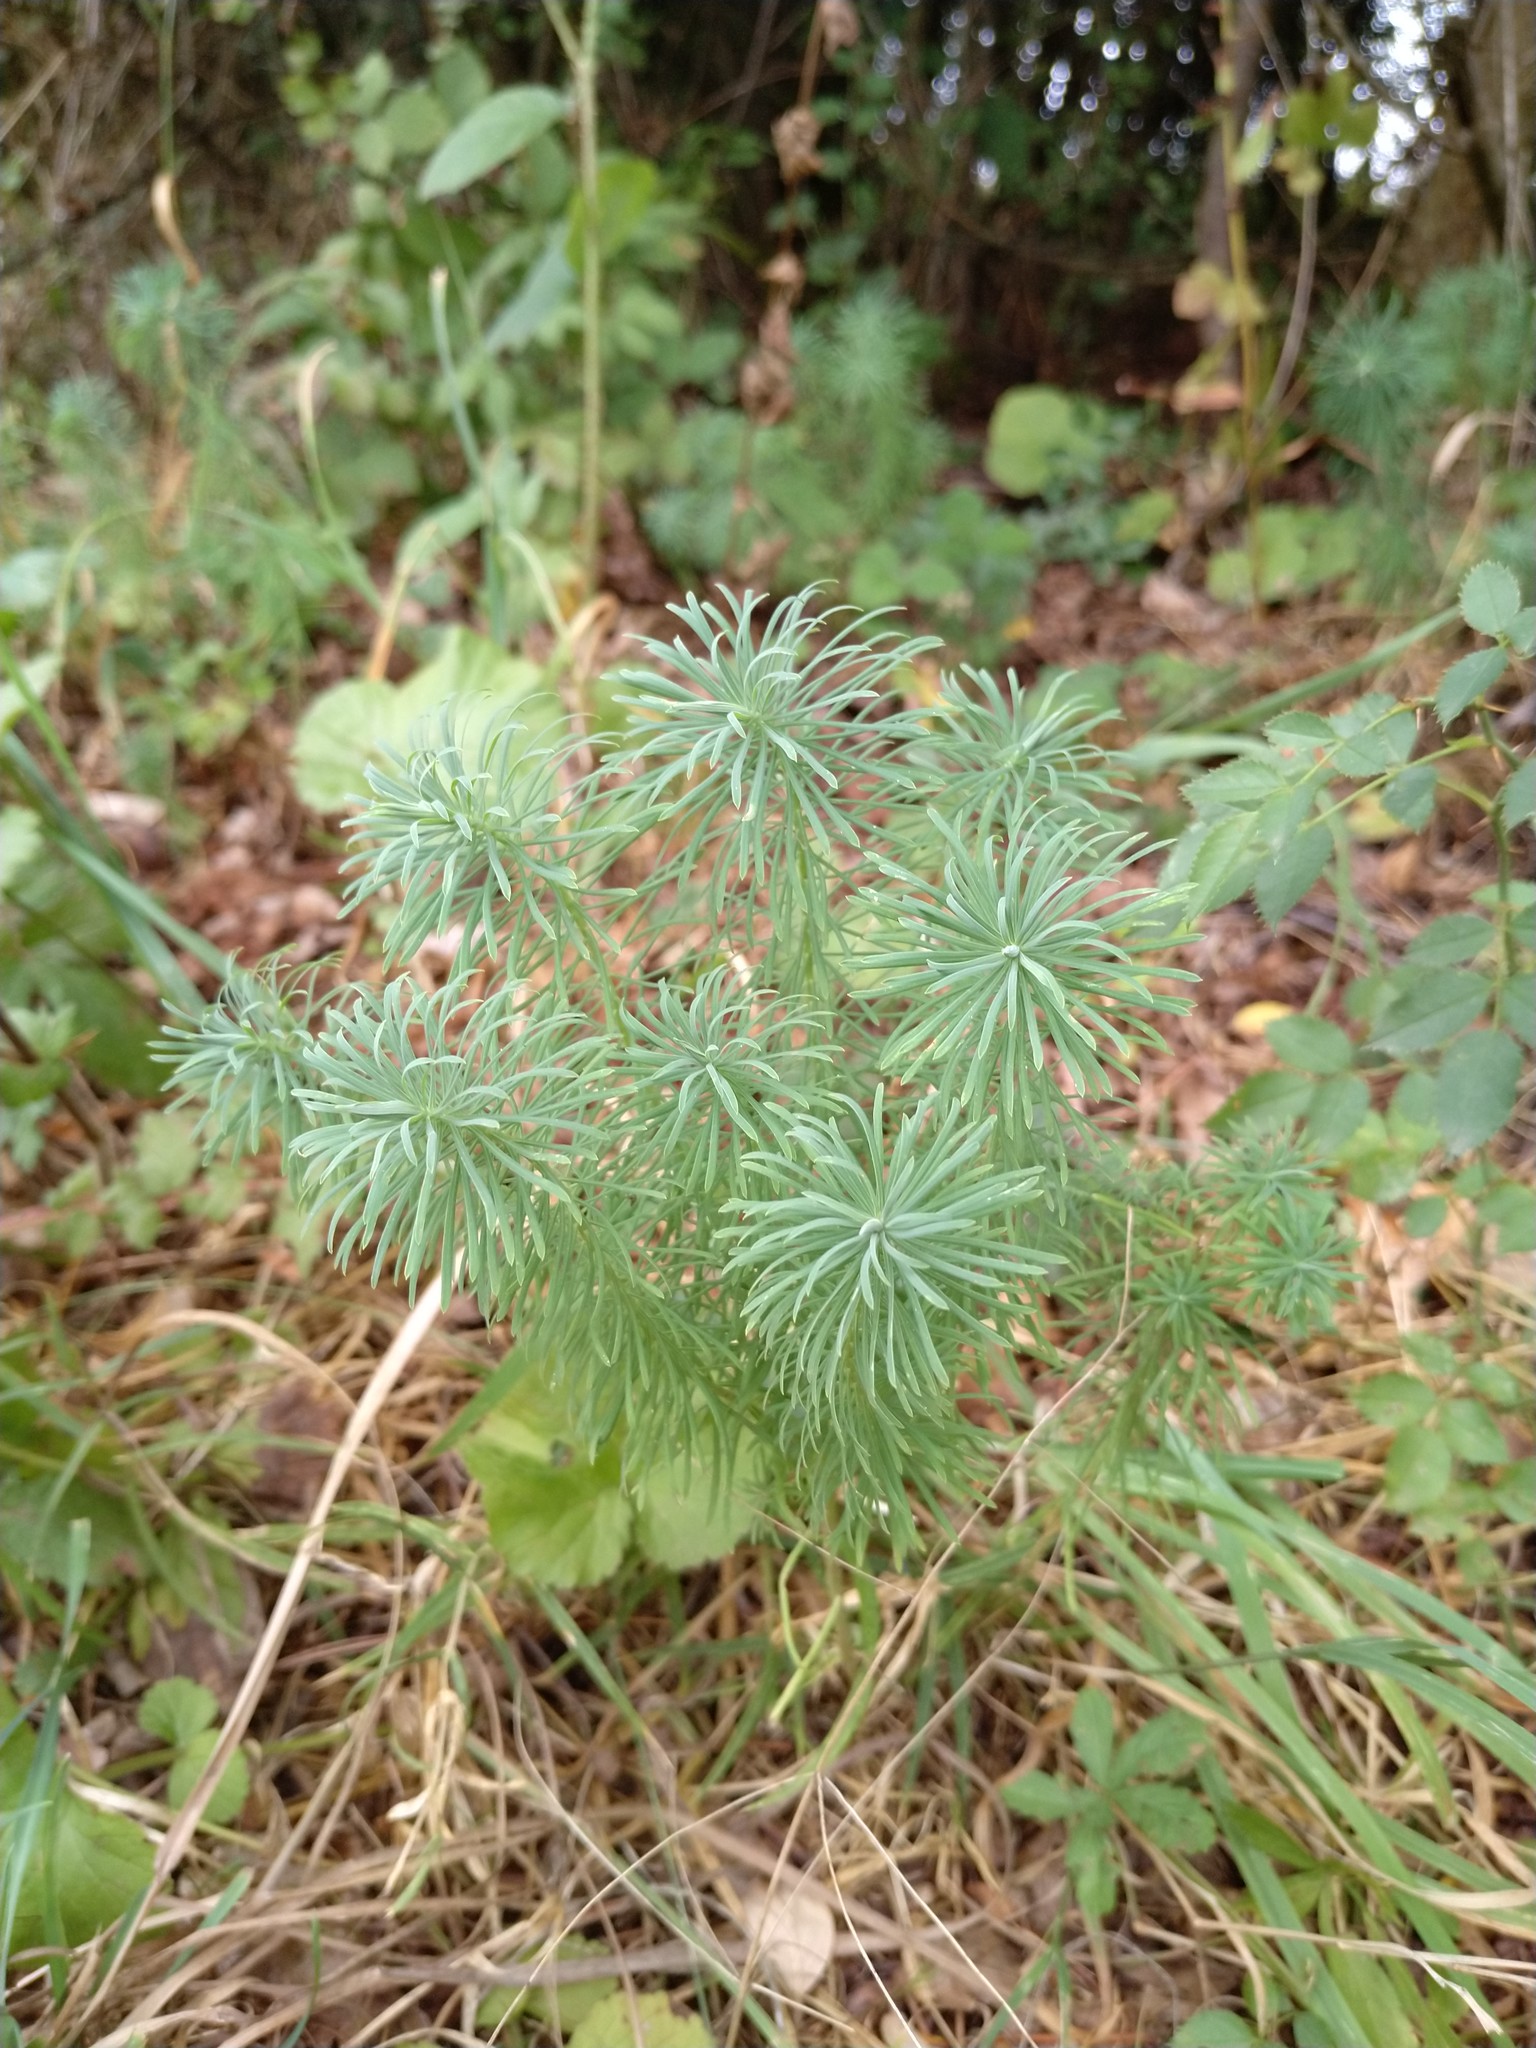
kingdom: Plantae
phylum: Tracheophyta
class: Magnoliopsida
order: Malpighiales
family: Euphorbiaceae
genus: Euphorbia
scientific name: Euphorbia cyparissias
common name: Cypress spurge
